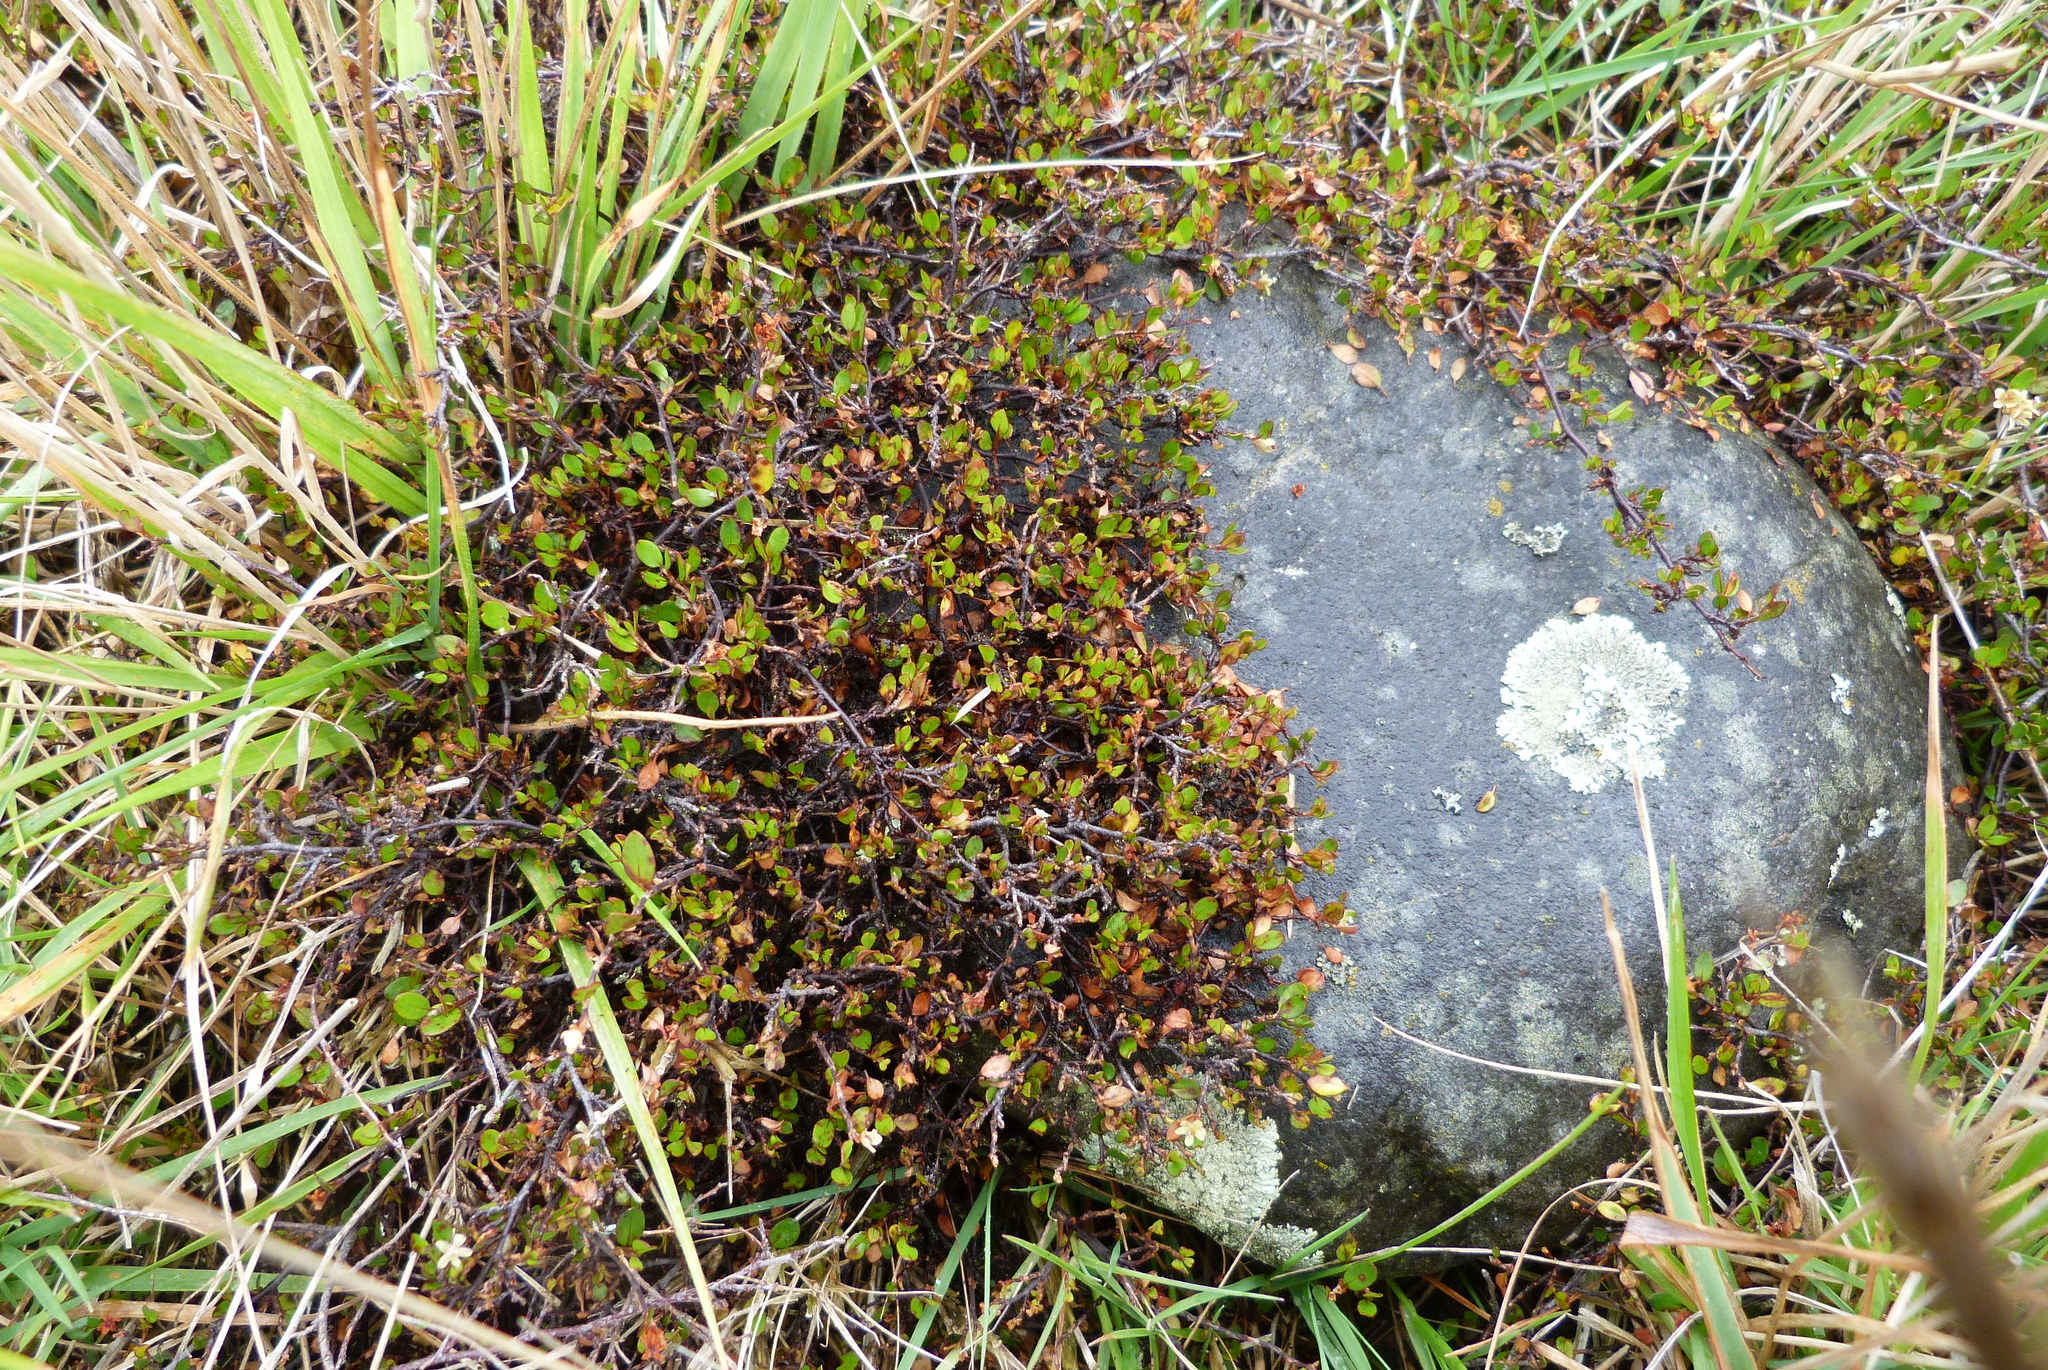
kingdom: Plantae
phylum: Tracheophyta
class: Magnoliopsida
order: Caryophyllales
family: Polygonaceae
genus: Muehlenbeckia
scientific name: Muehlenbeckia axillaris
